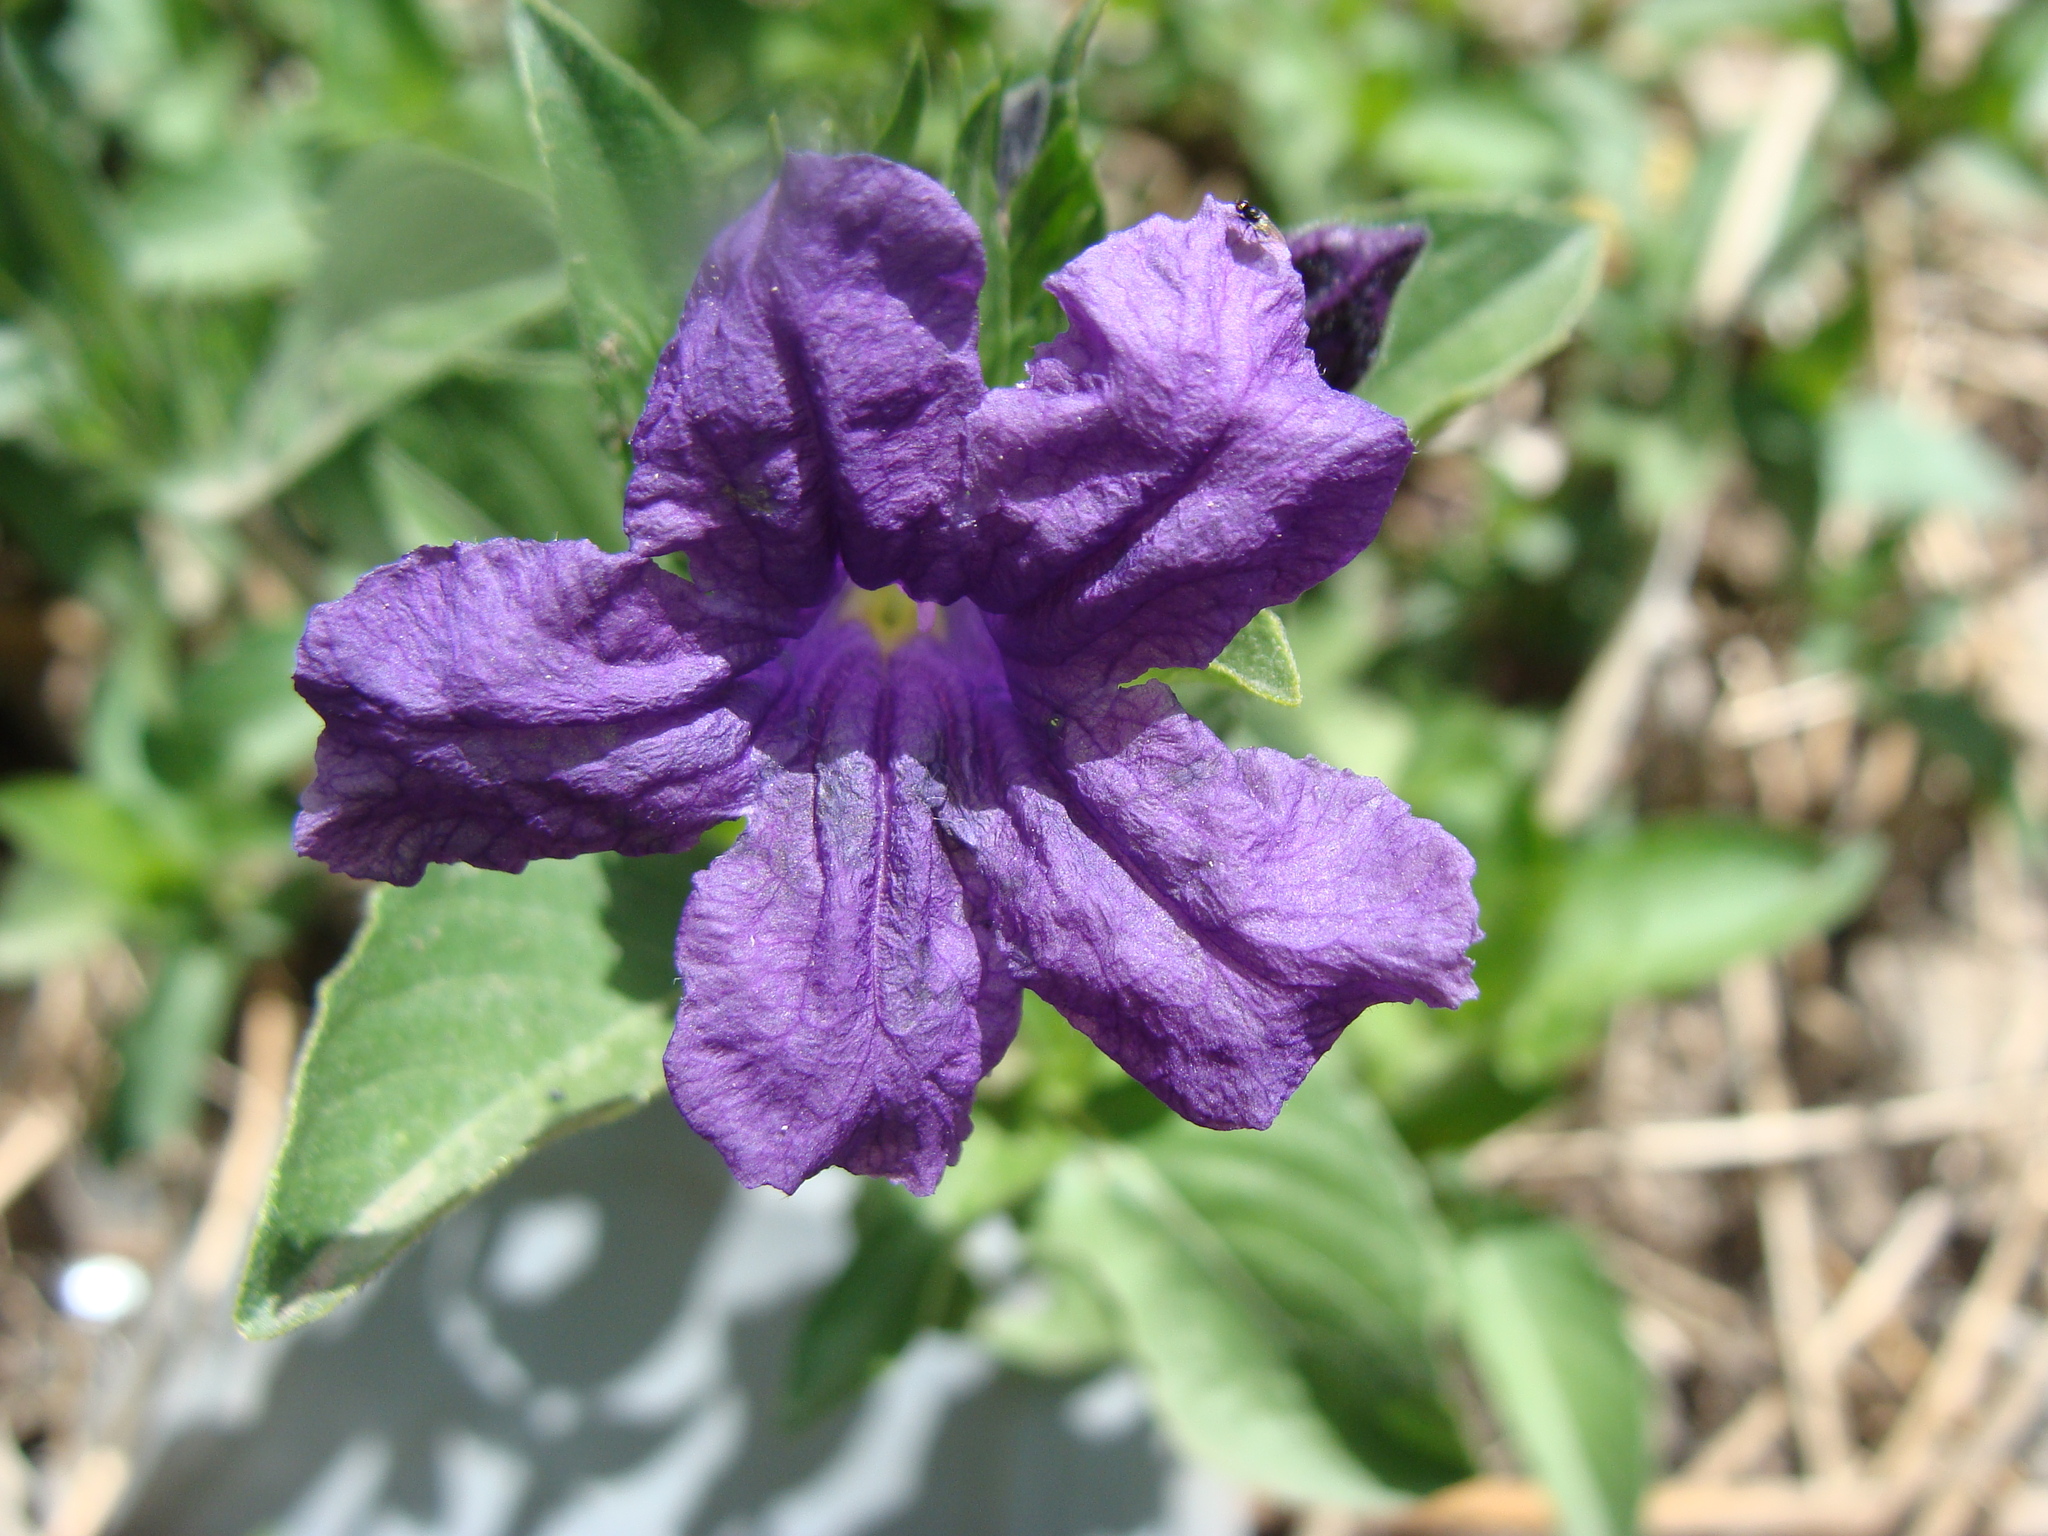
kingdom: Plantae
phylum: Tracheophyta
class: Magnoliopsida
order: Lamiales
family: Acanthaceae
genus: Ruellia
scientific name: Ruellia lactea
